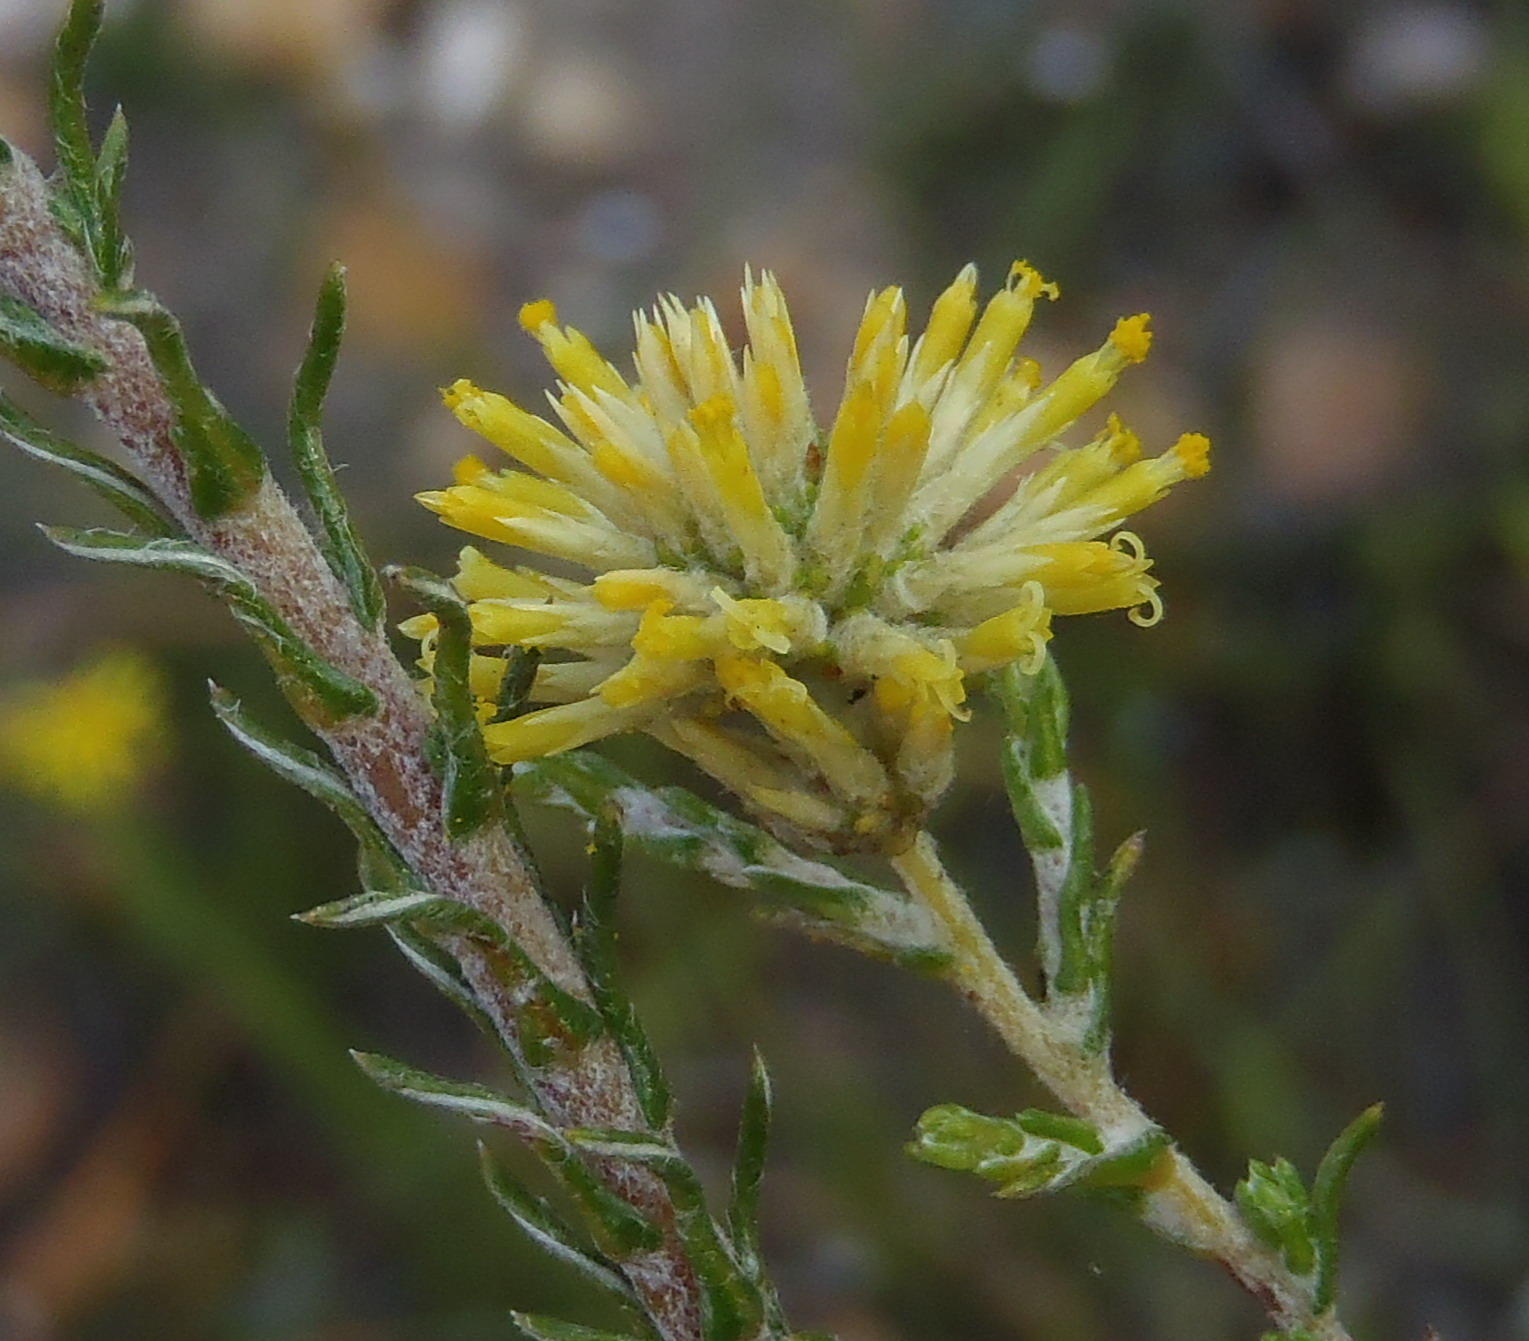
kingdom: Plantae
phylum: Tracheophyta
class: Magnoliopsida
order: Asterales
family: Asteraceae
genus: Seriphium
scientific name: Seriphium spirale
